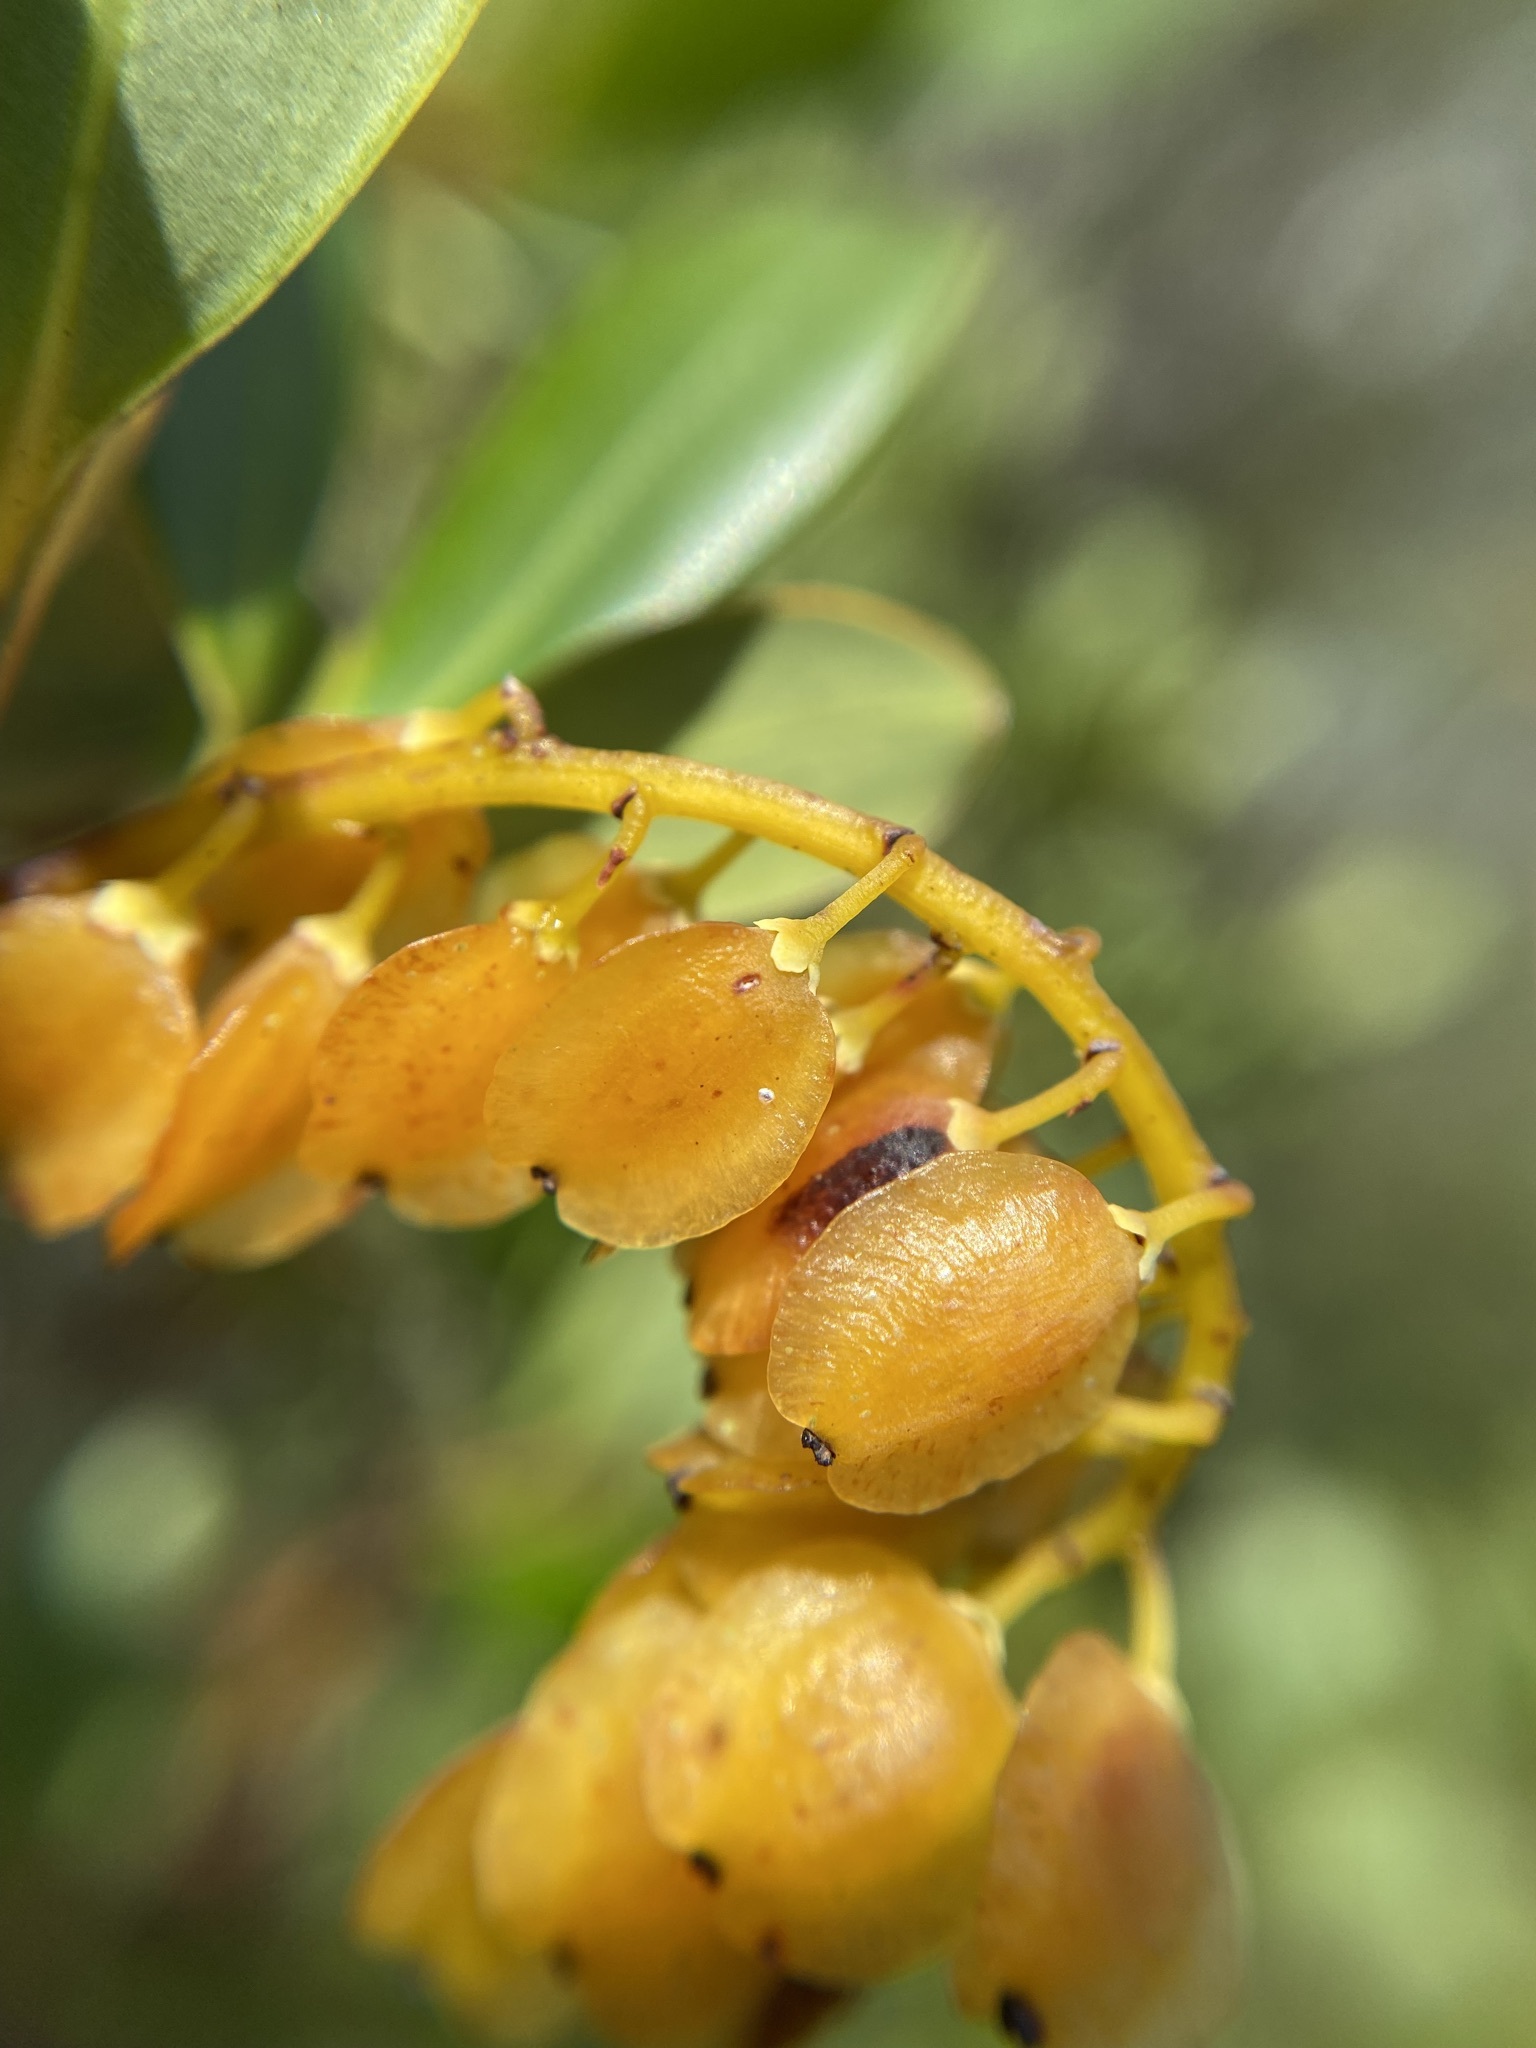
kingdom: Plantae
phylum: Tracheophyta
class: Magnoliopsida
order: Ericales
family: Cyrillaceae
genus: Cliftonia
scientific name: Cliftonia monophylla
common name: Titi
